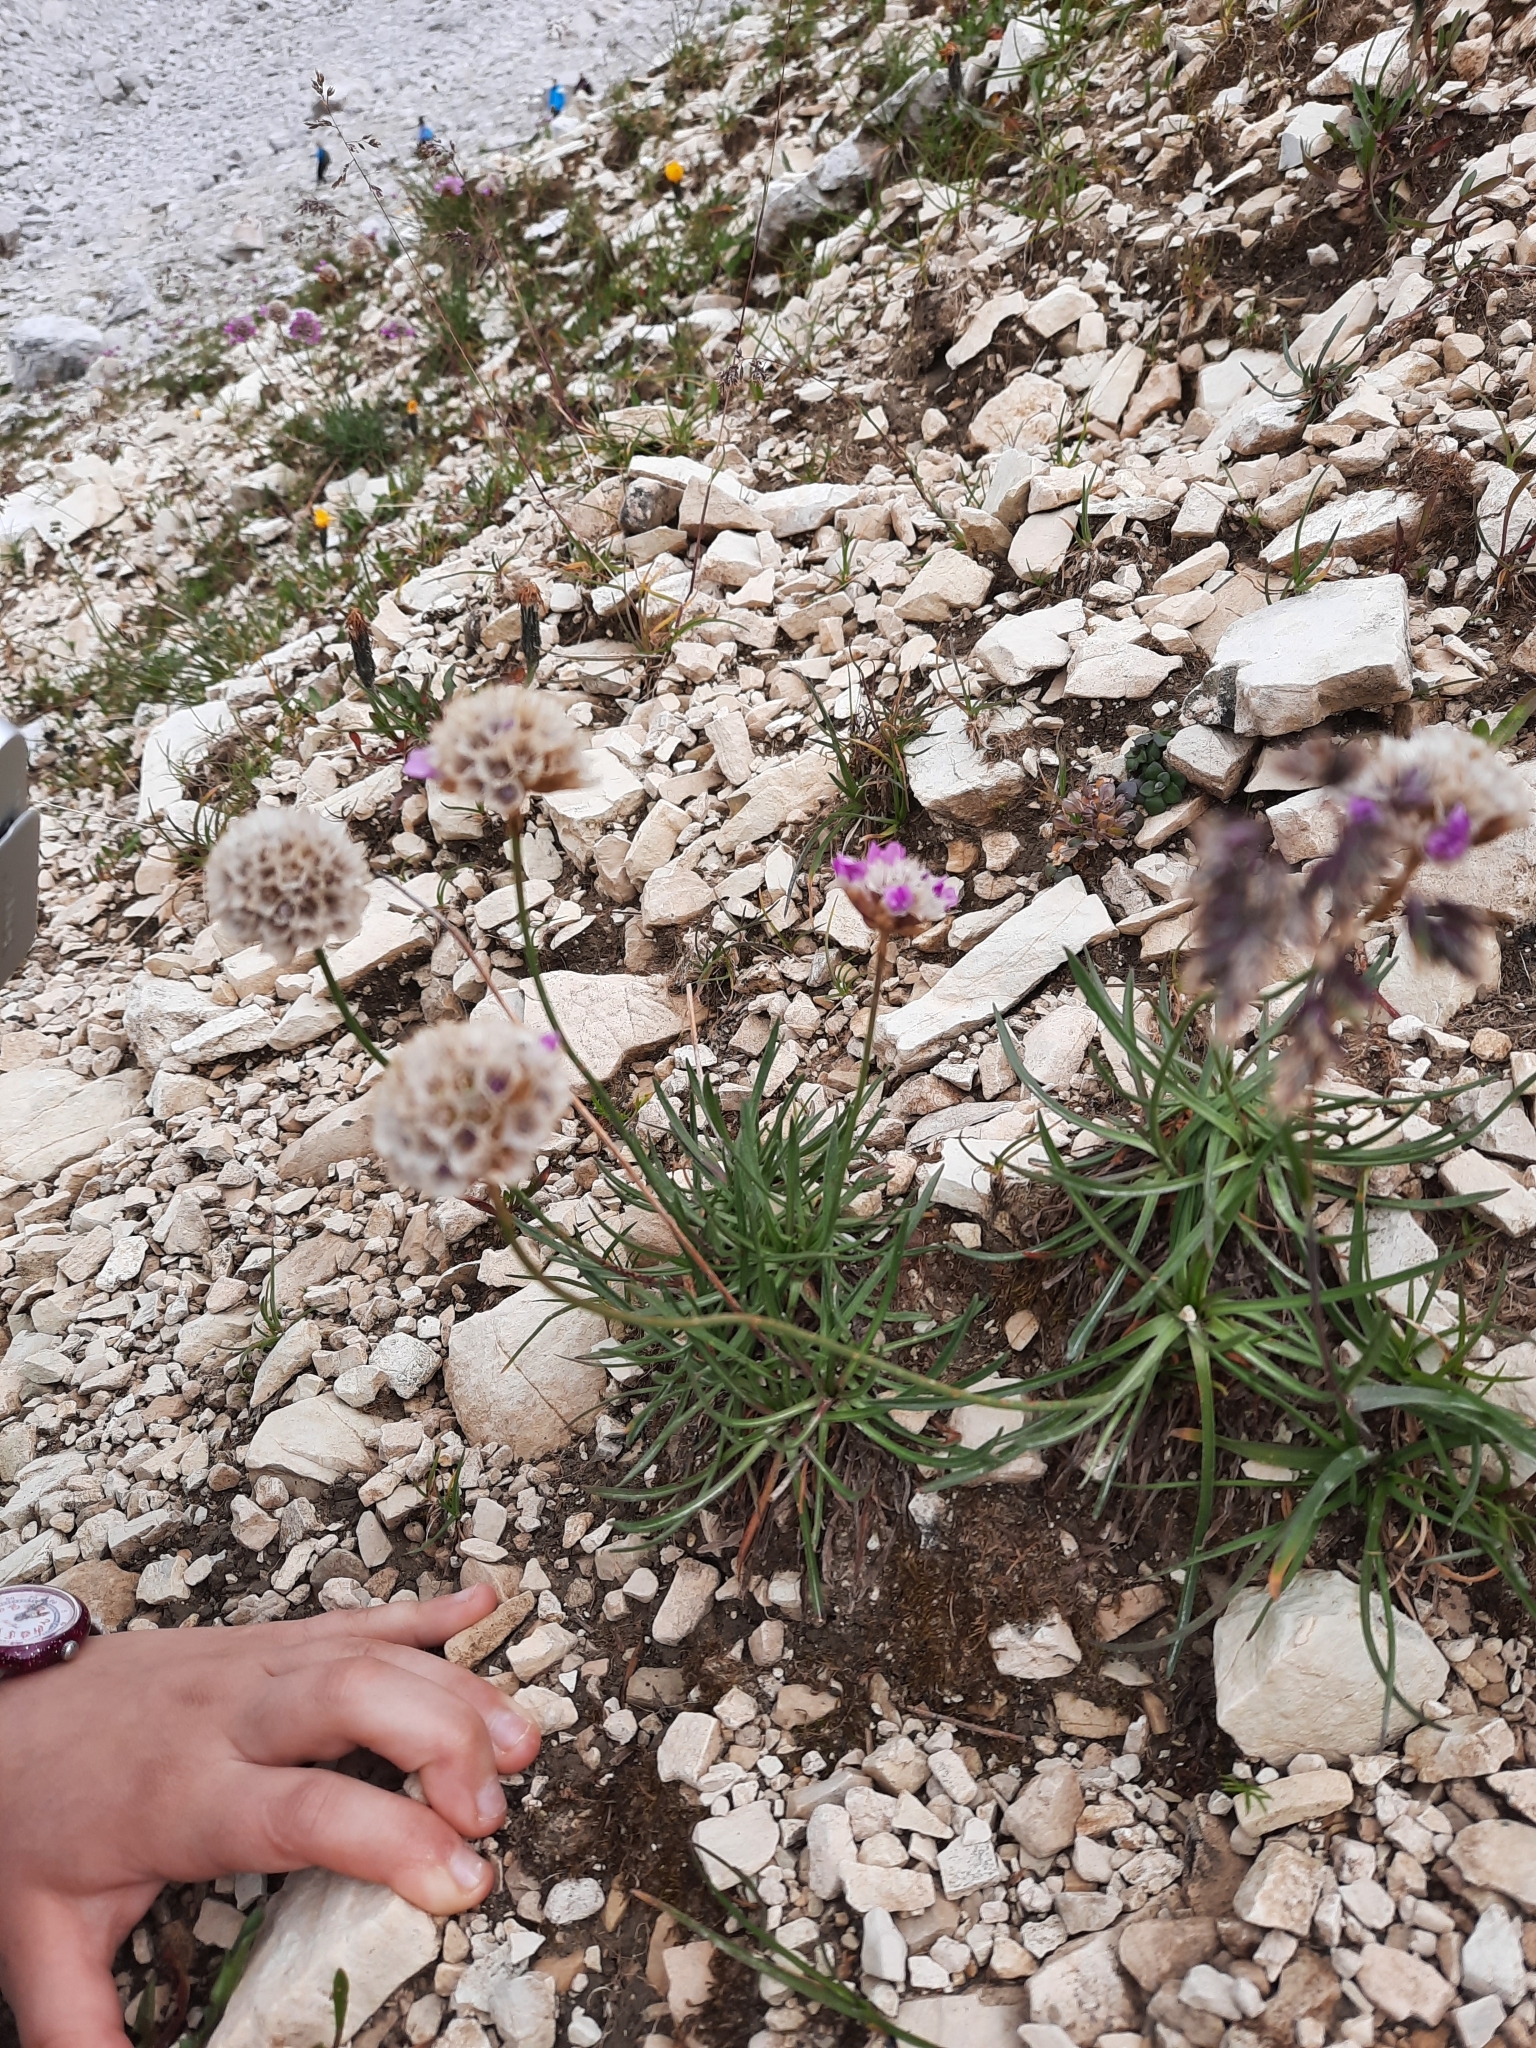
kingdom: Plantae
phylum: Tracheophyta
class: Magnoliopsida
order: Caryophyllales
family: Plumbaginaceae
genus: Armeria
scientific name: Armeria alpina
